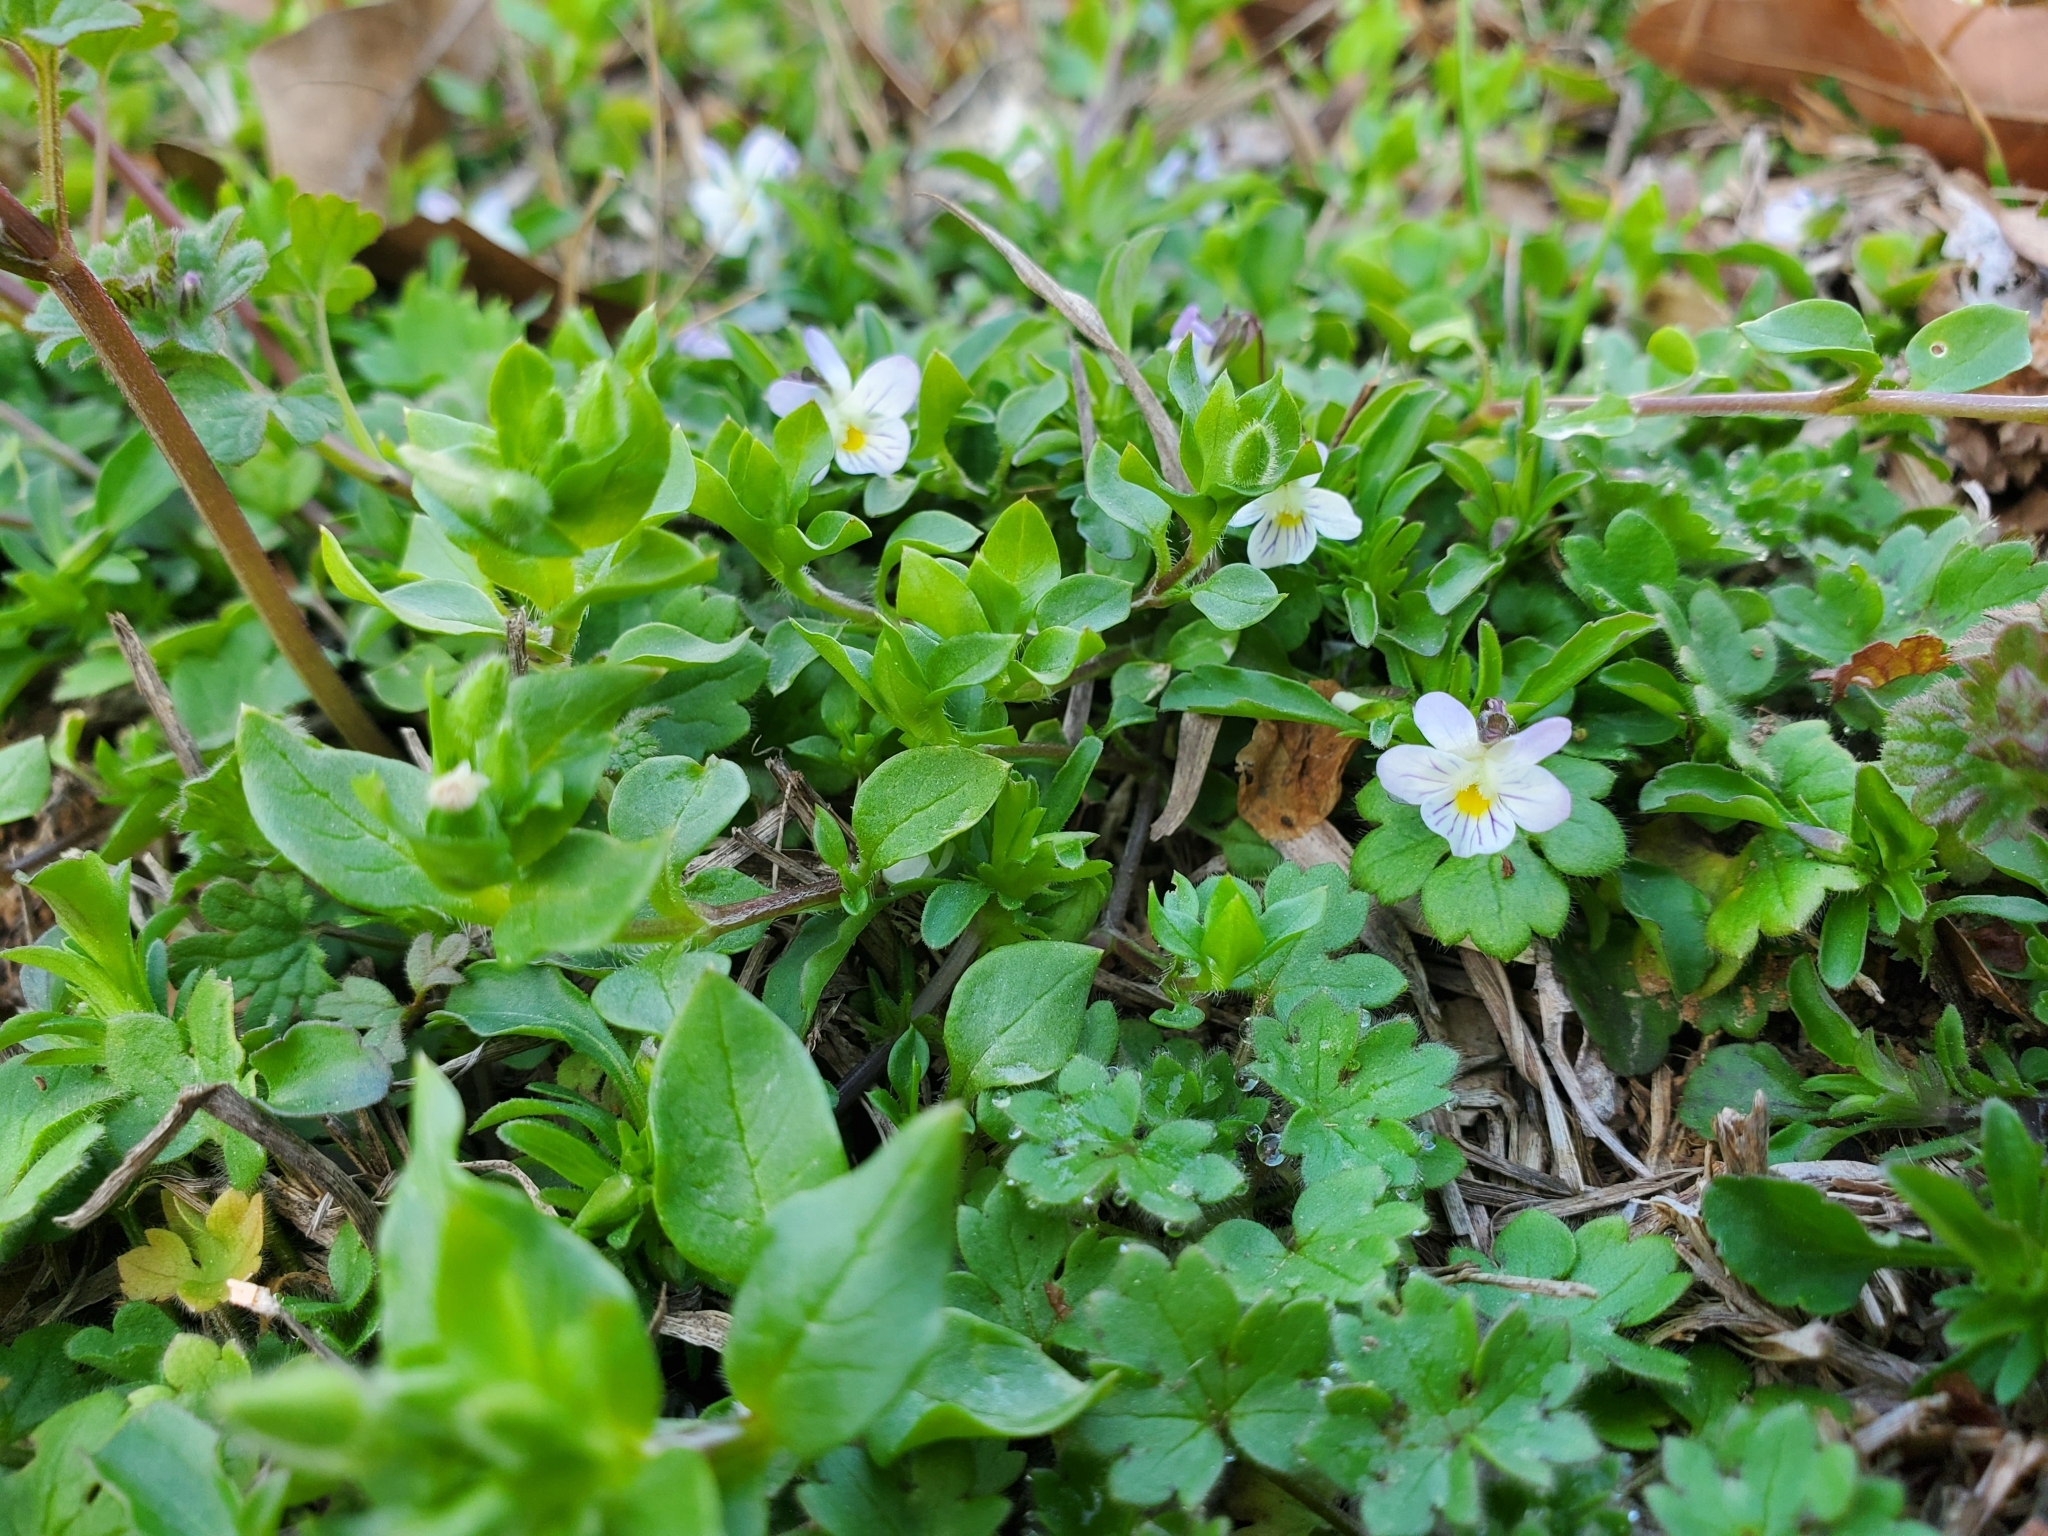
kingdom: Plantae
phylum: Tracheophyta
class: Magnoliopsida
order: Malpighiales
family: Violaceae
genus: Viola
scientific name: Viola rafinesquei
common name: American field pansy
